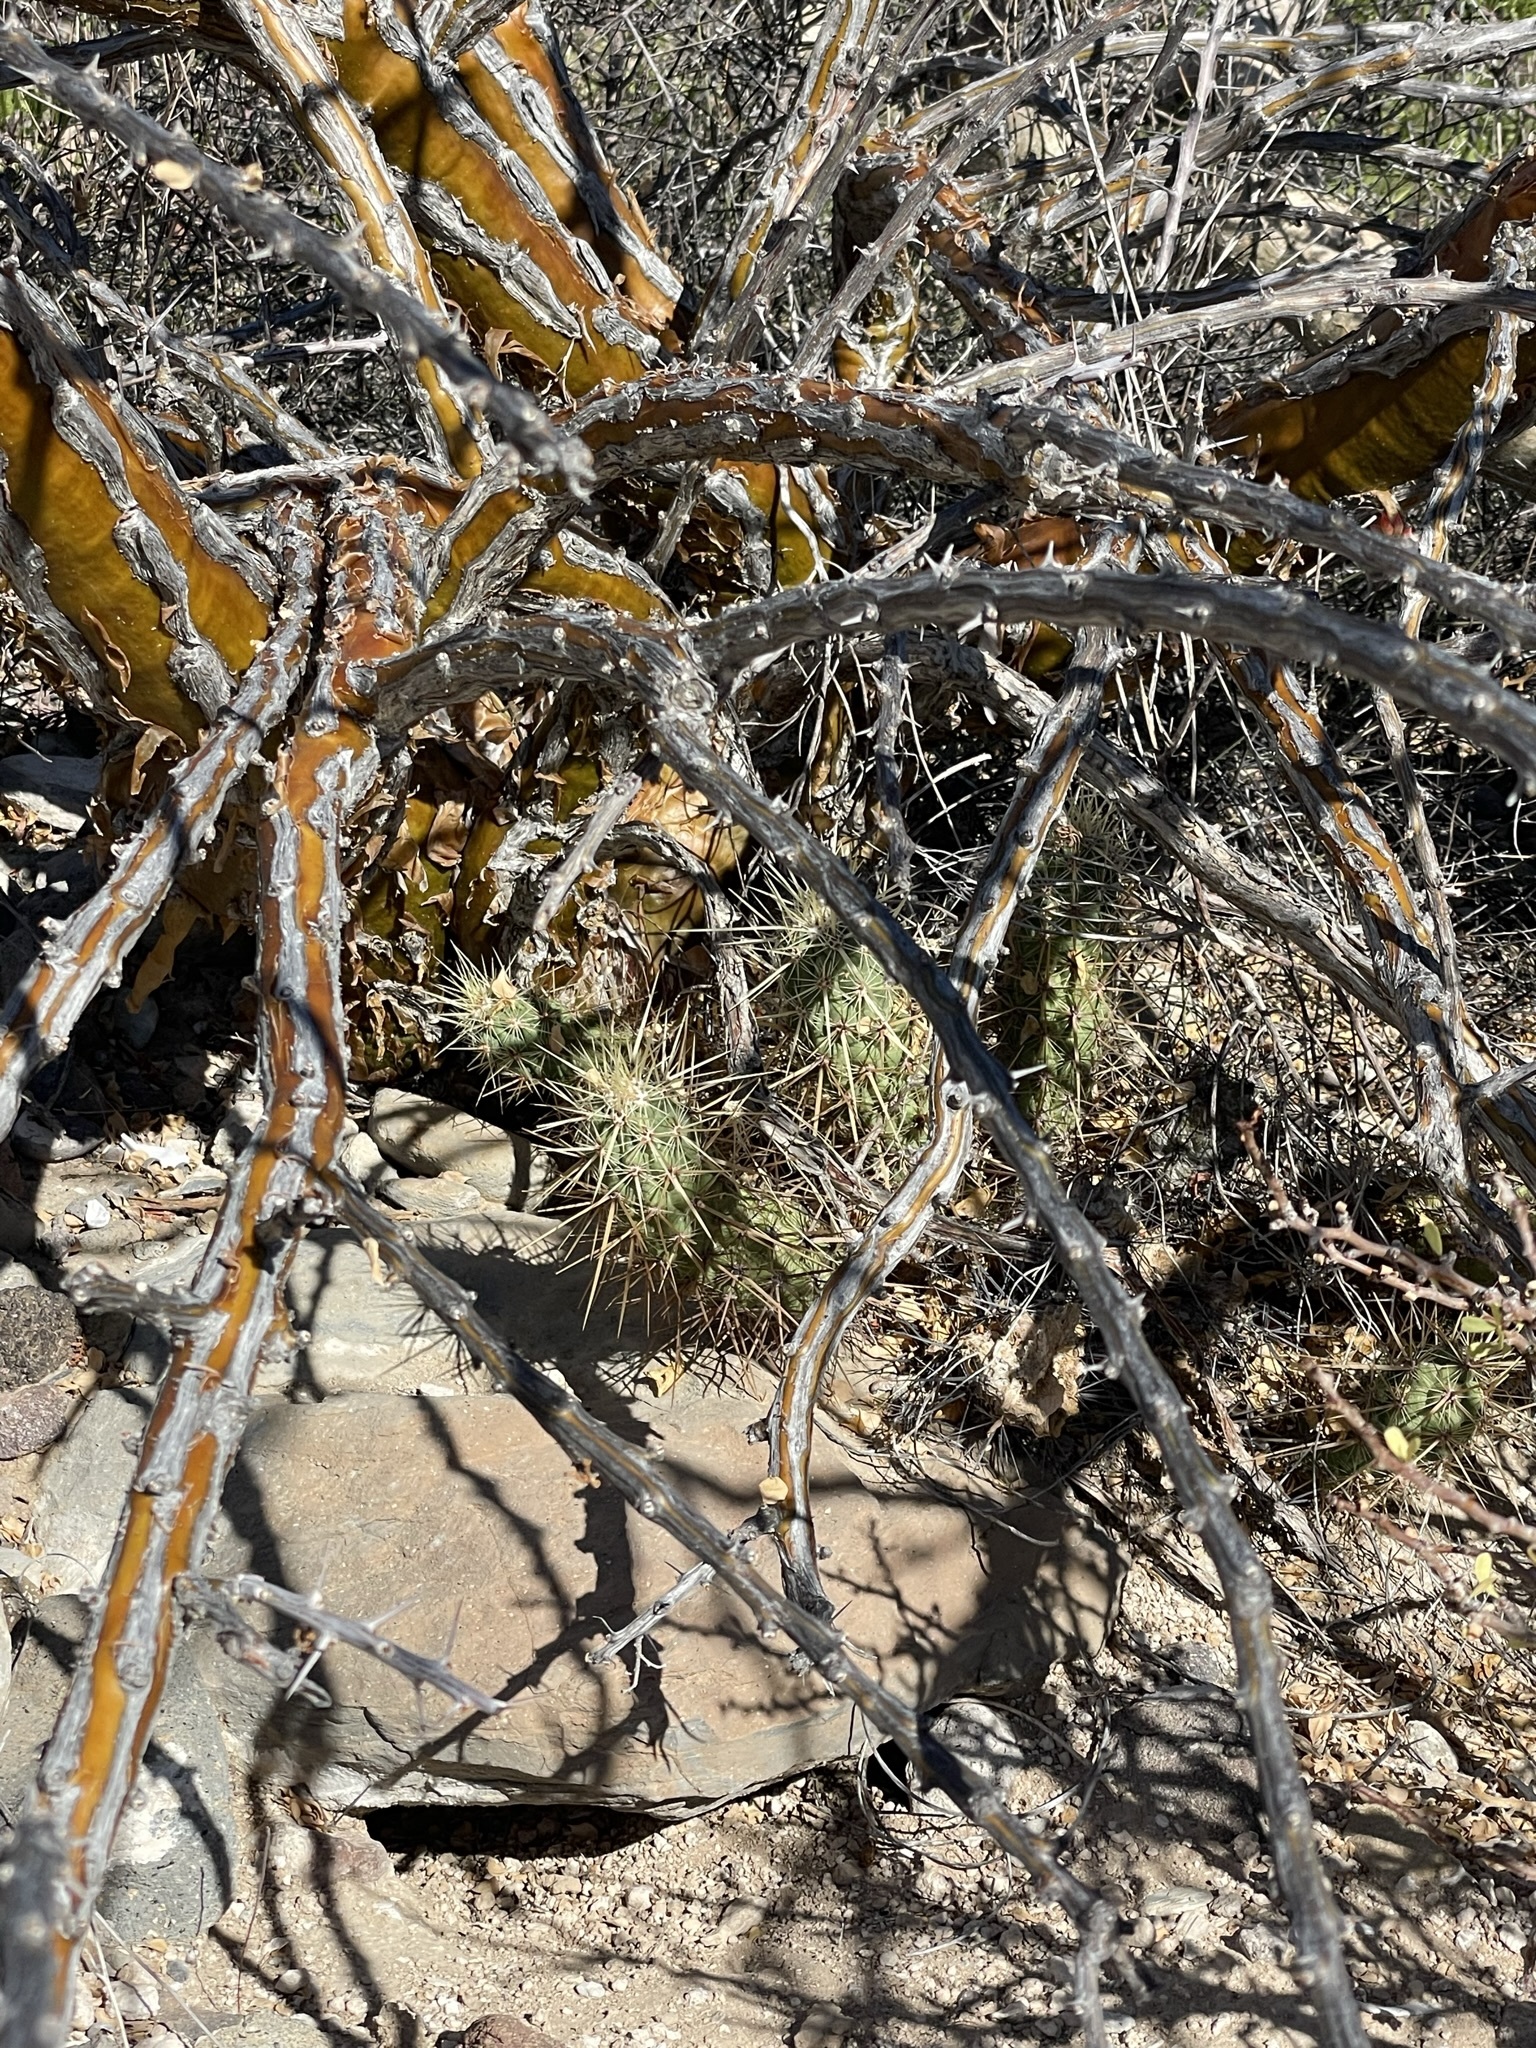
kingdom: Plantae
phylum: Tracheophyta
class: Magnoliopsida
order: Caryophyllales
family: Cactaceae
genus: Echinocereus
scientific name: Echinocereus brandegeei
